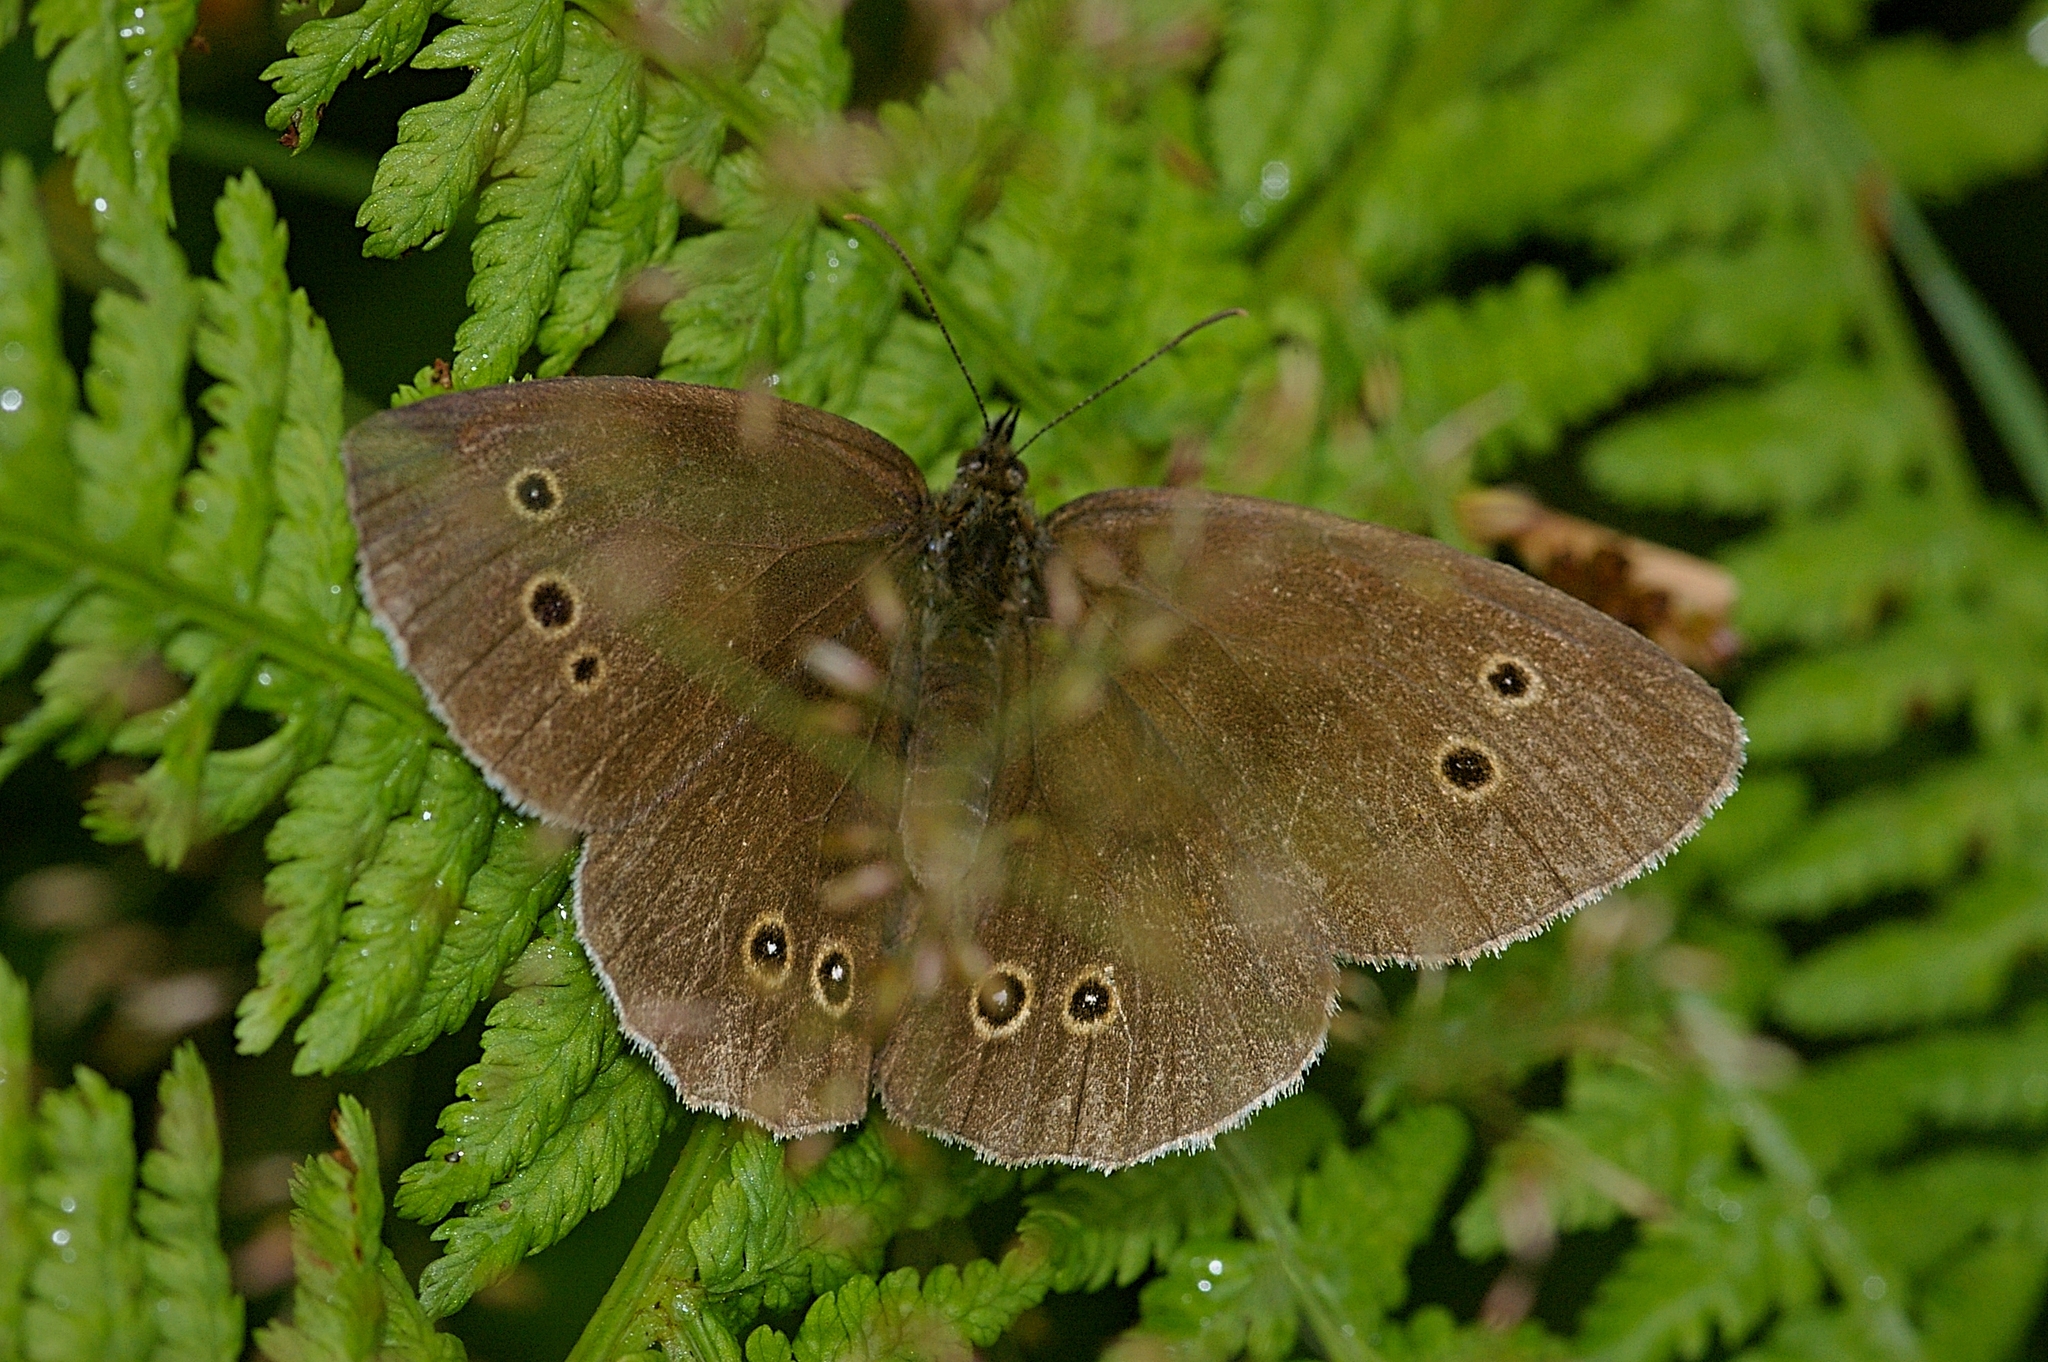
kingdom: Animalia
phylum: Arthropoda
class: Insecta
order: Lepidoptera
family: Nymphalidae
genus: Aphantopus
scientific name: Aphantopus hyperantus
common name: Ringlet
